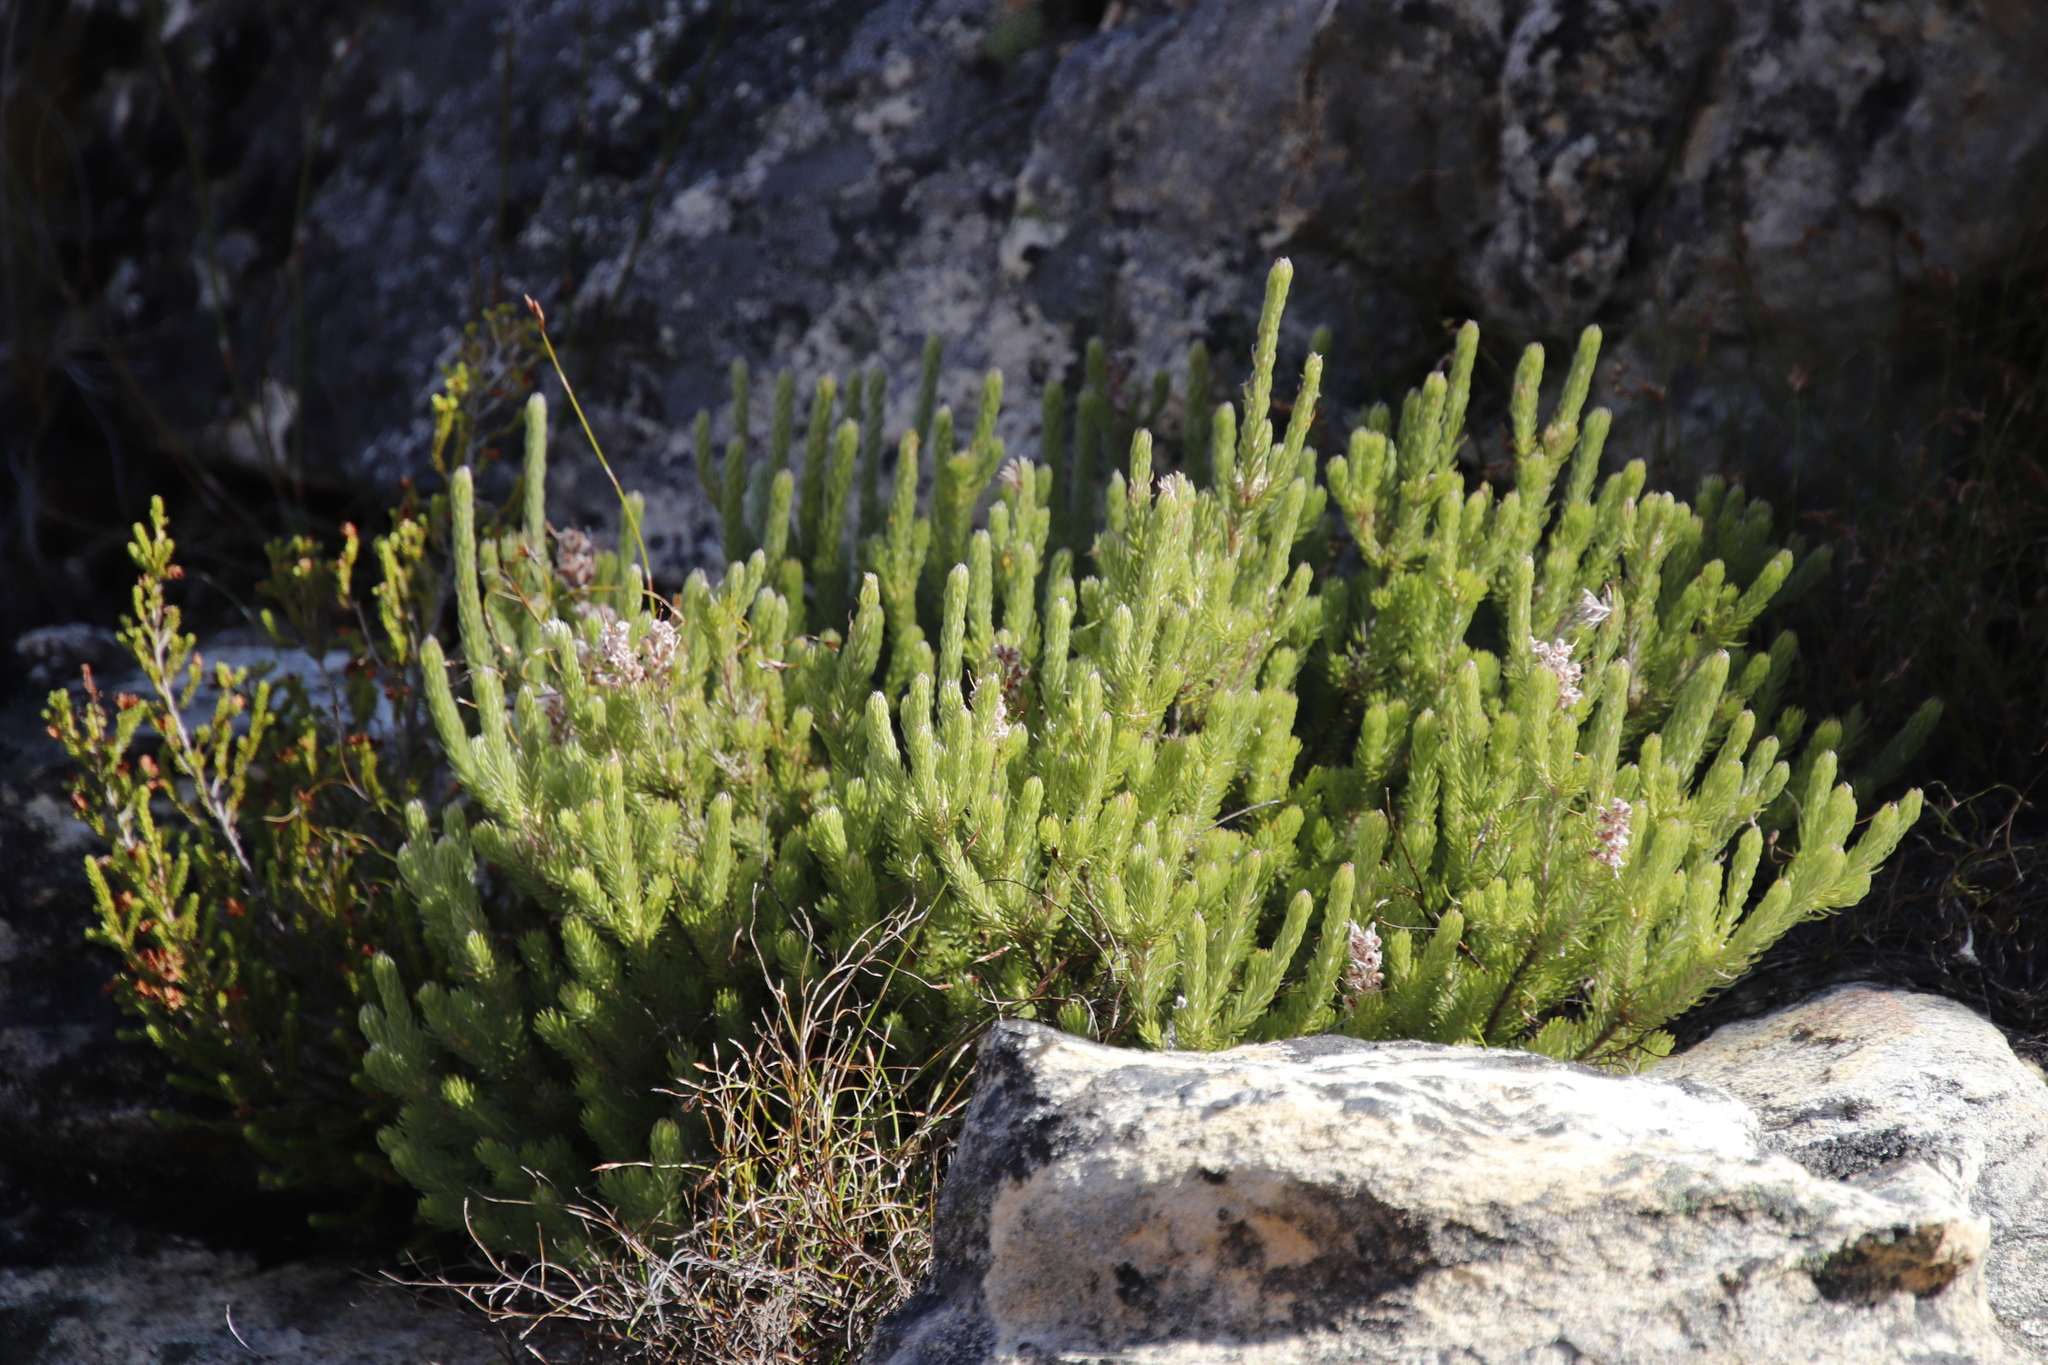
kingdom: Plantae
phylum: Tracheophyta
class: Magnoliopsida
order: Proteales
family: Proteaceae
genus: Spatalla
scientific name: Spatalla incurva
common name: Swan-head spoon
